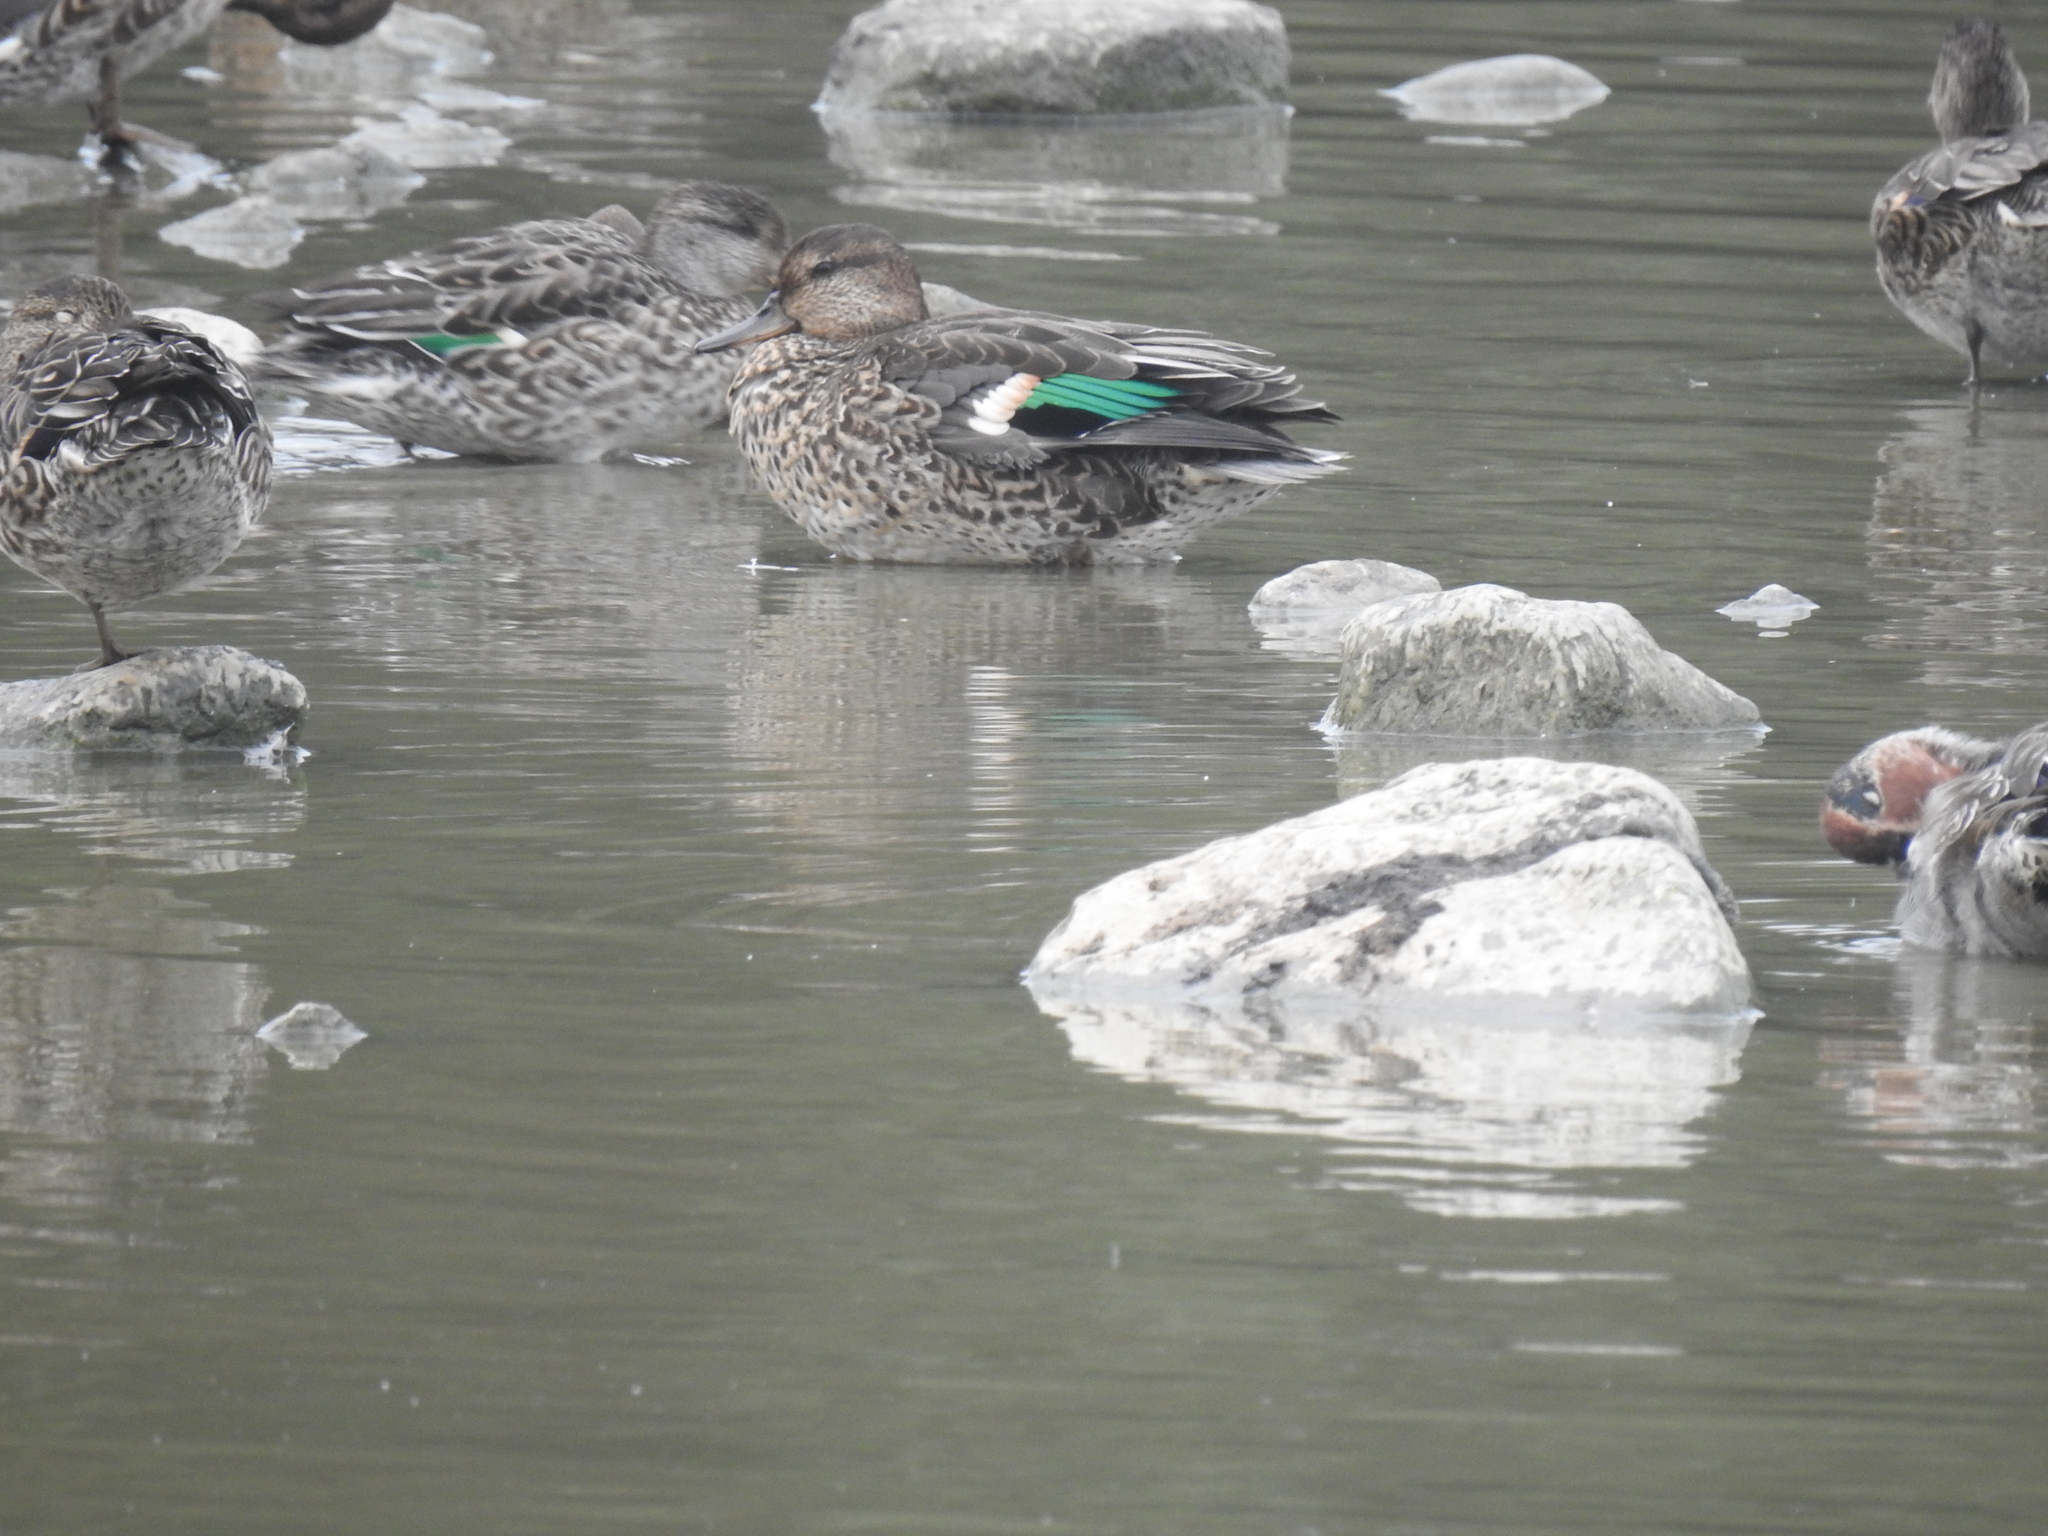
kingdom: Animalia
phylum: Chordata
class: Aves
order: Anseriformes
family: Anatidae
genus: Anas
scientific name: Anas crecca
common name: Eurasian teal
